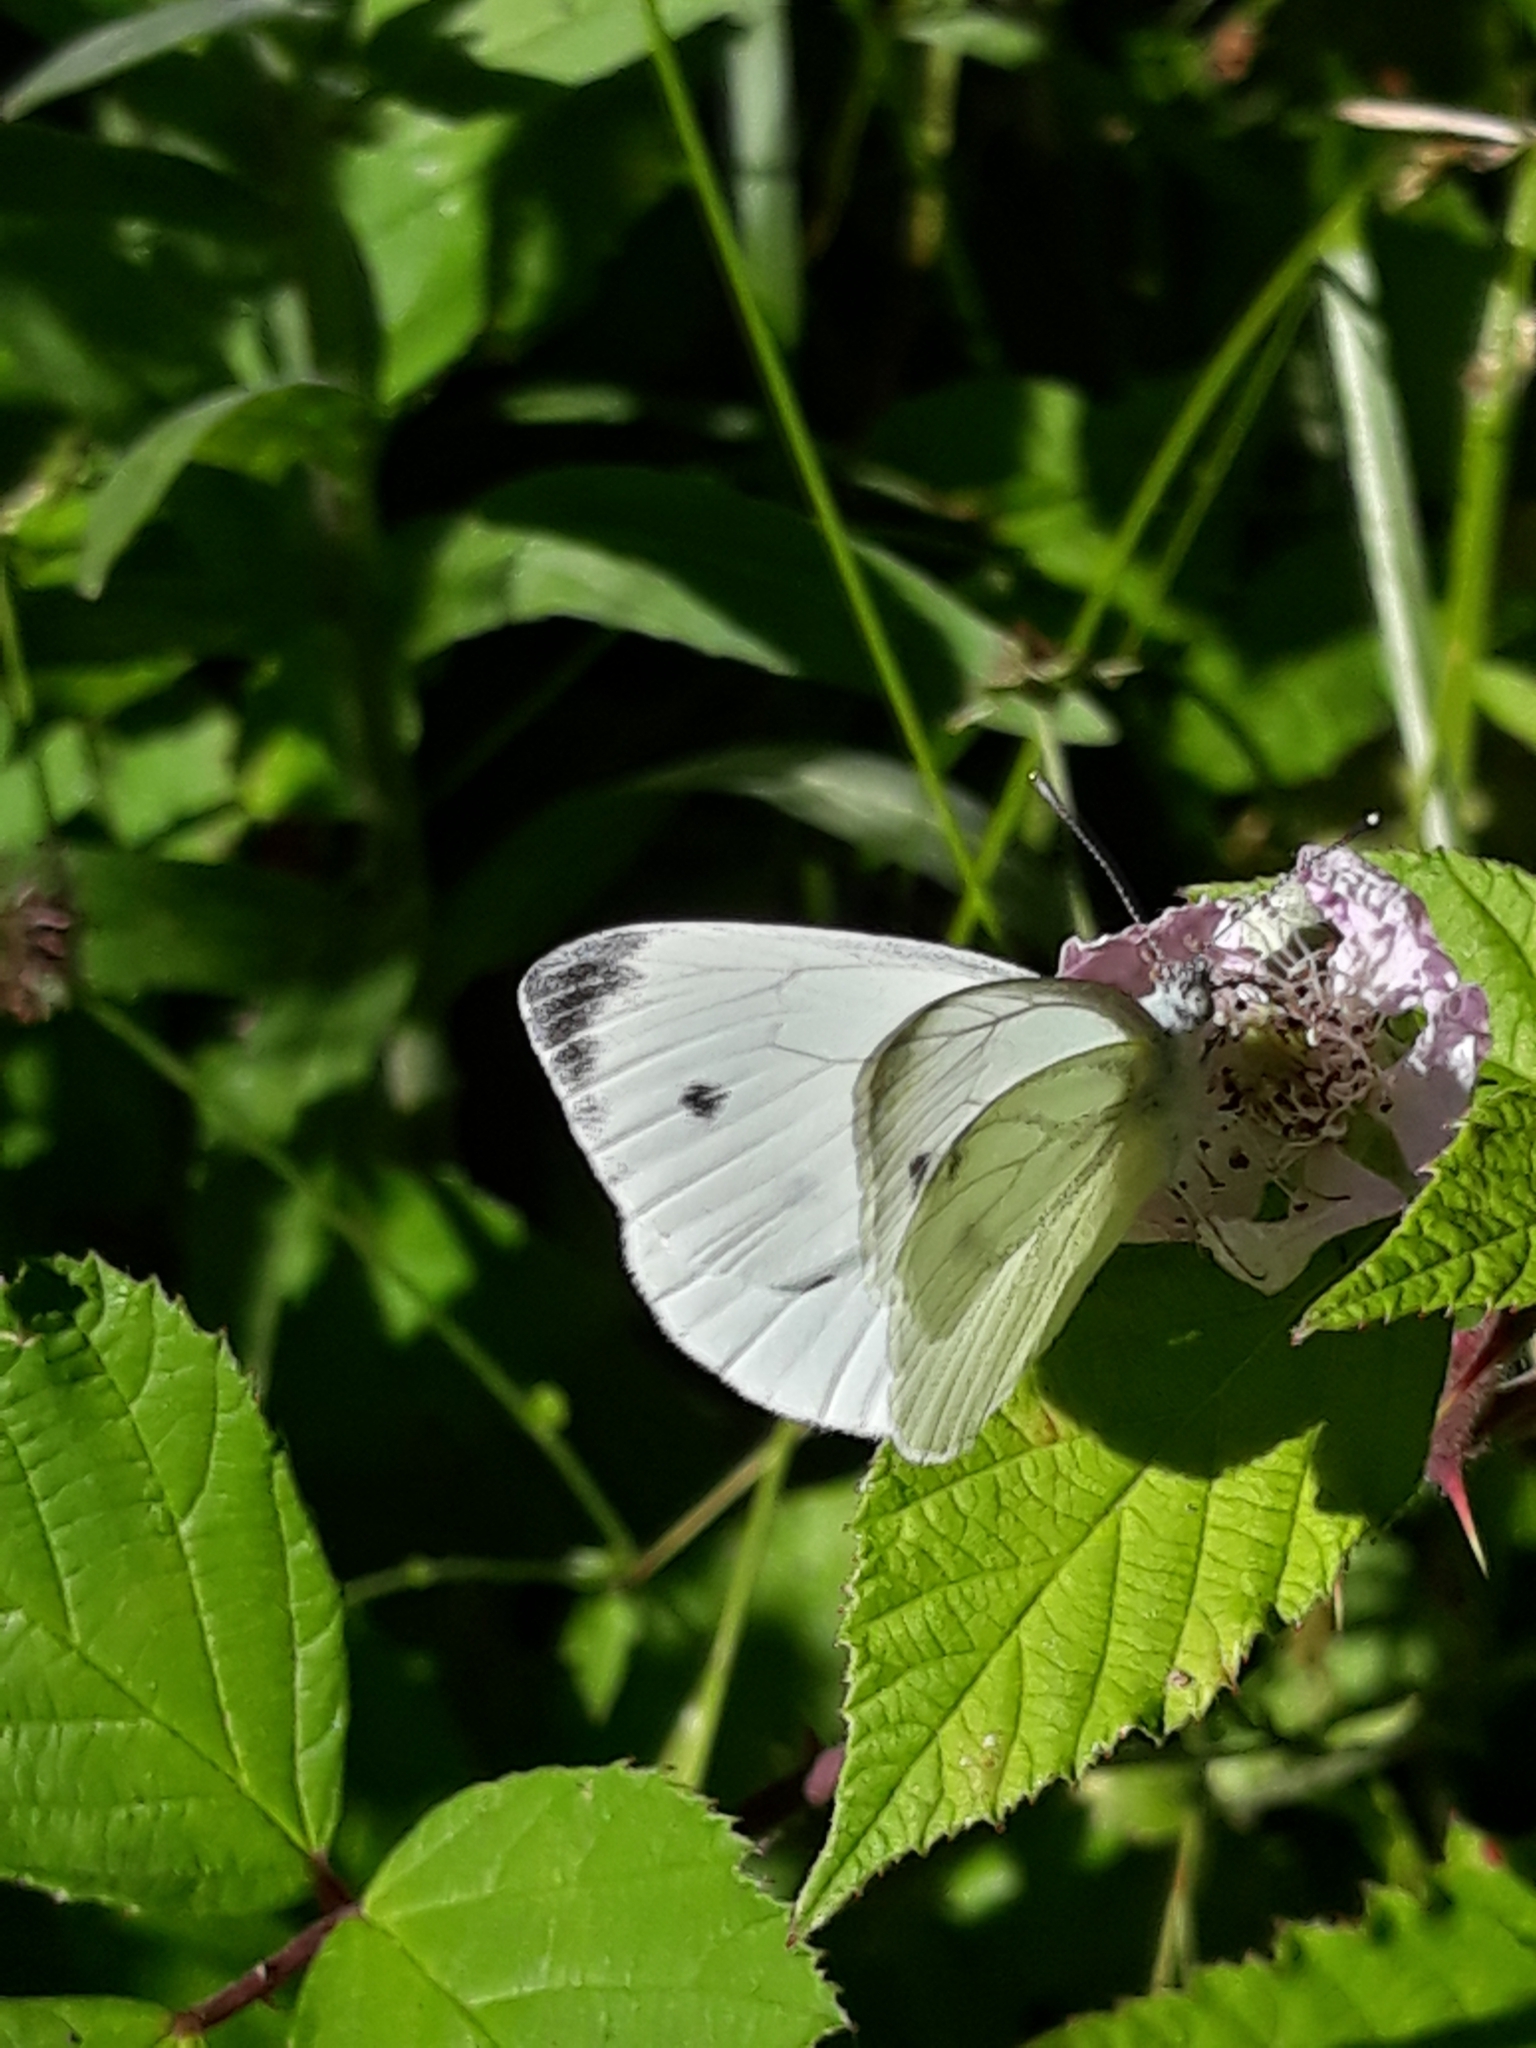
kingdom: Animalia
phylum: Arthropoda
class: Insecta
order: Lepidoptera
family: Pieridae
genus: Pieris
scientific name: Pieris napi
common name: Green-veined white
